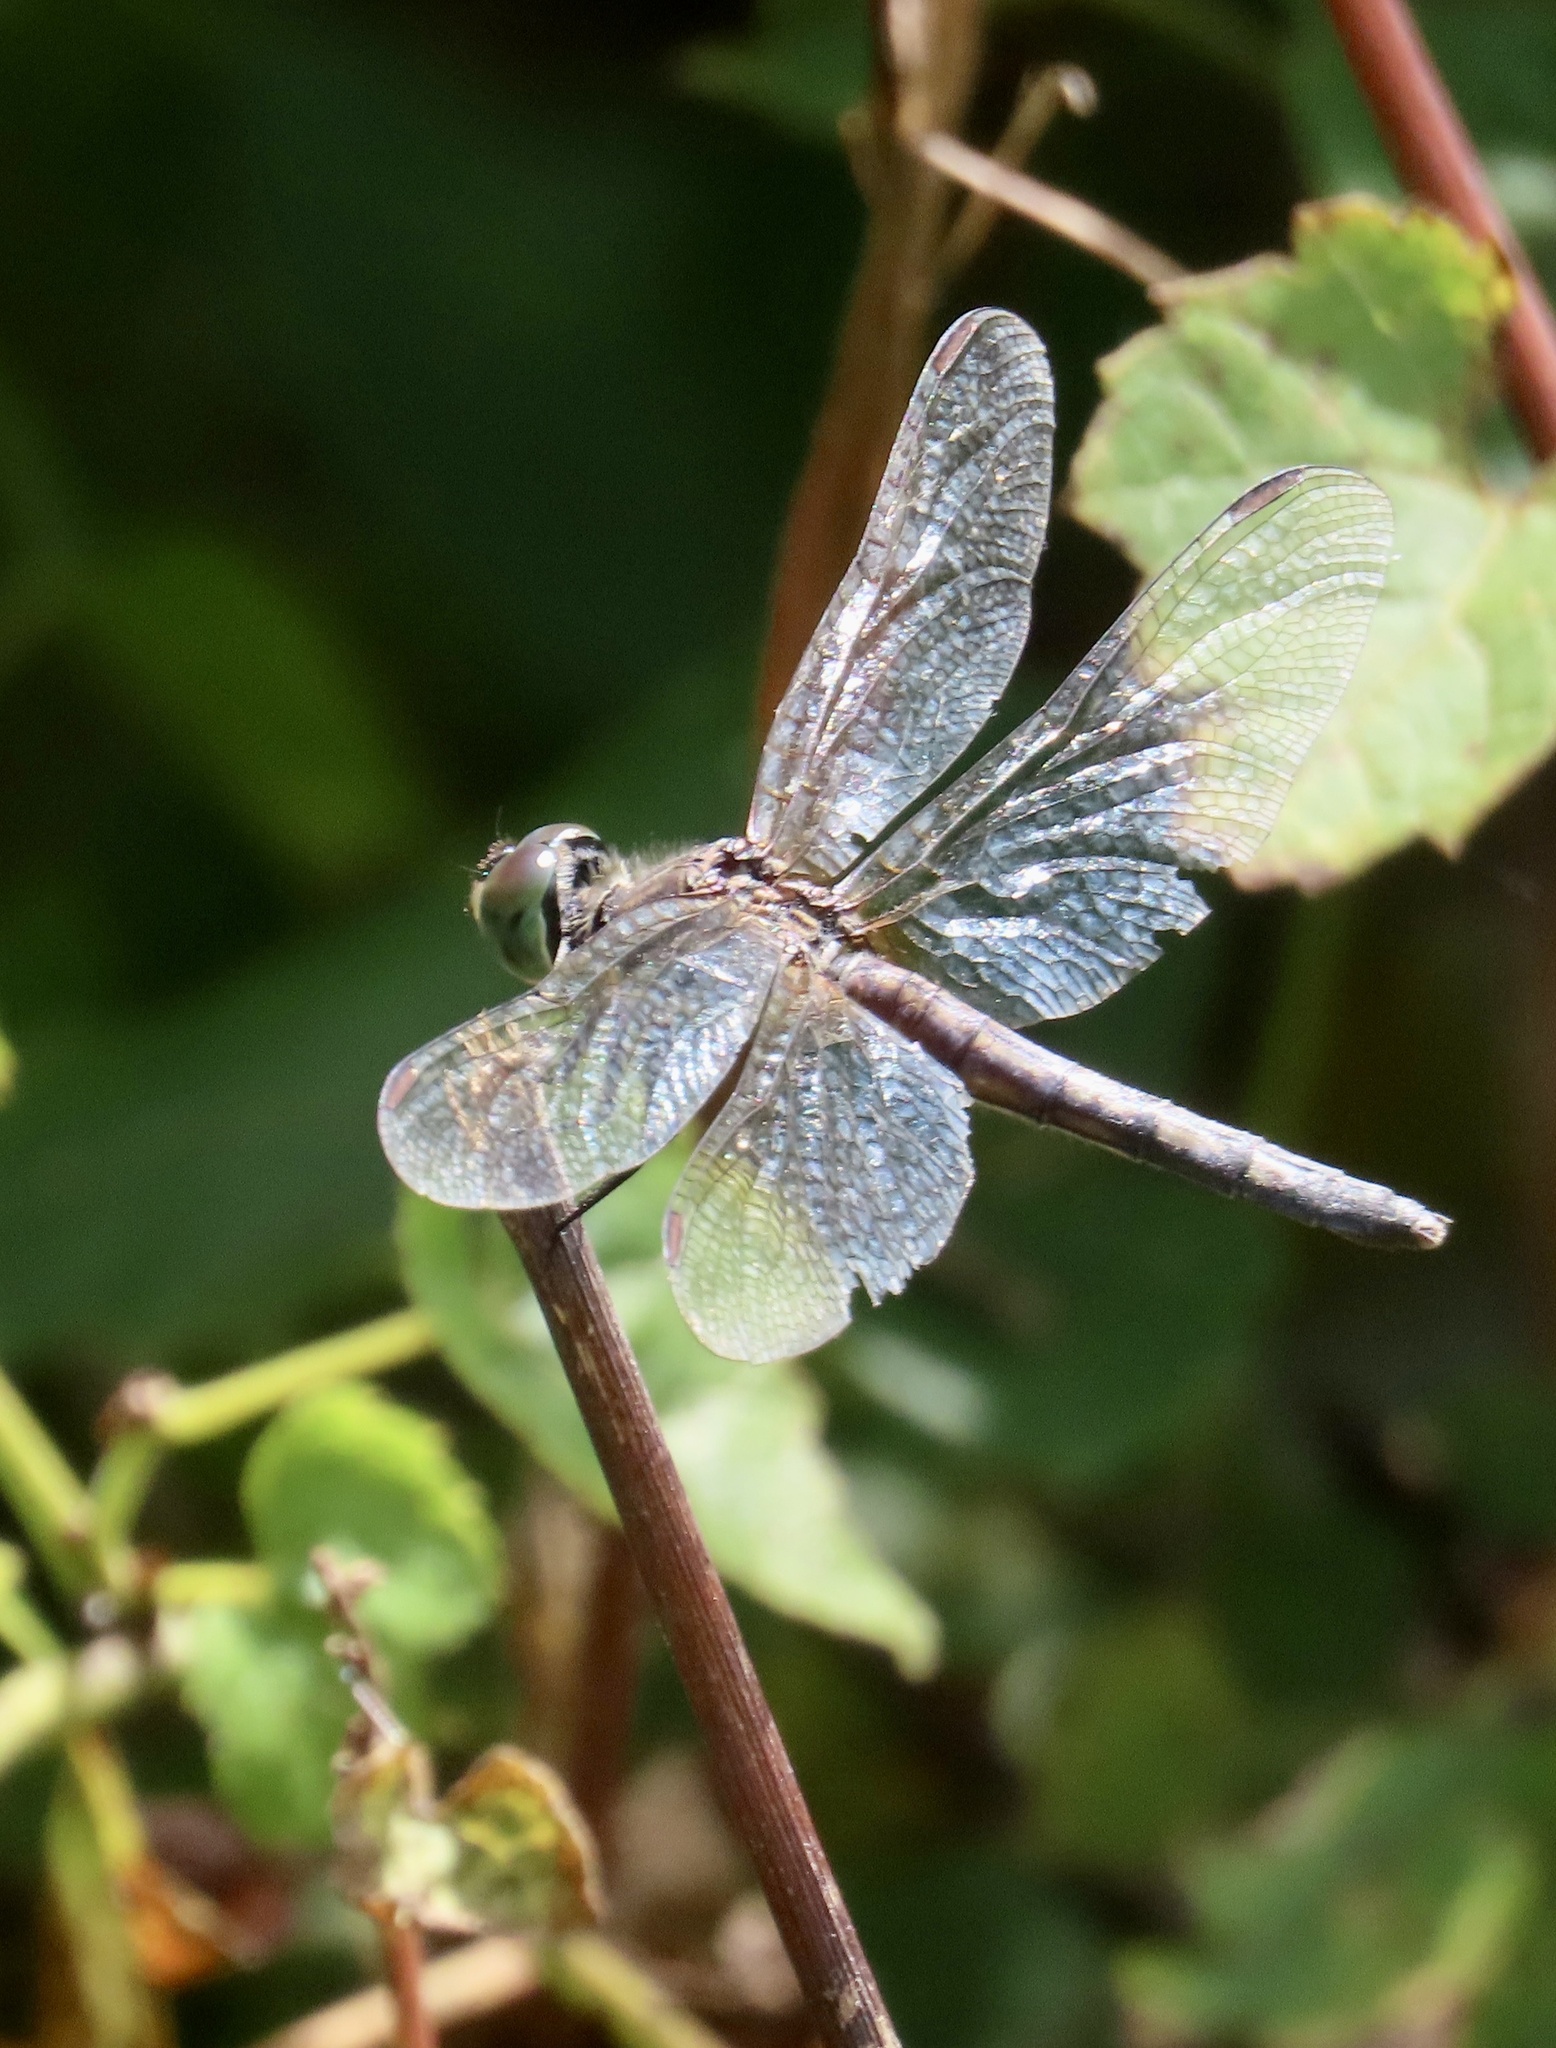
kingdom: Animalia
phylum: Arthropoda
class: Insecta
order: Odonata
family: Libellulidae
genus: Pachydiplax
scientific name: Pachydiplax longipennis
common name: Blue dasher
